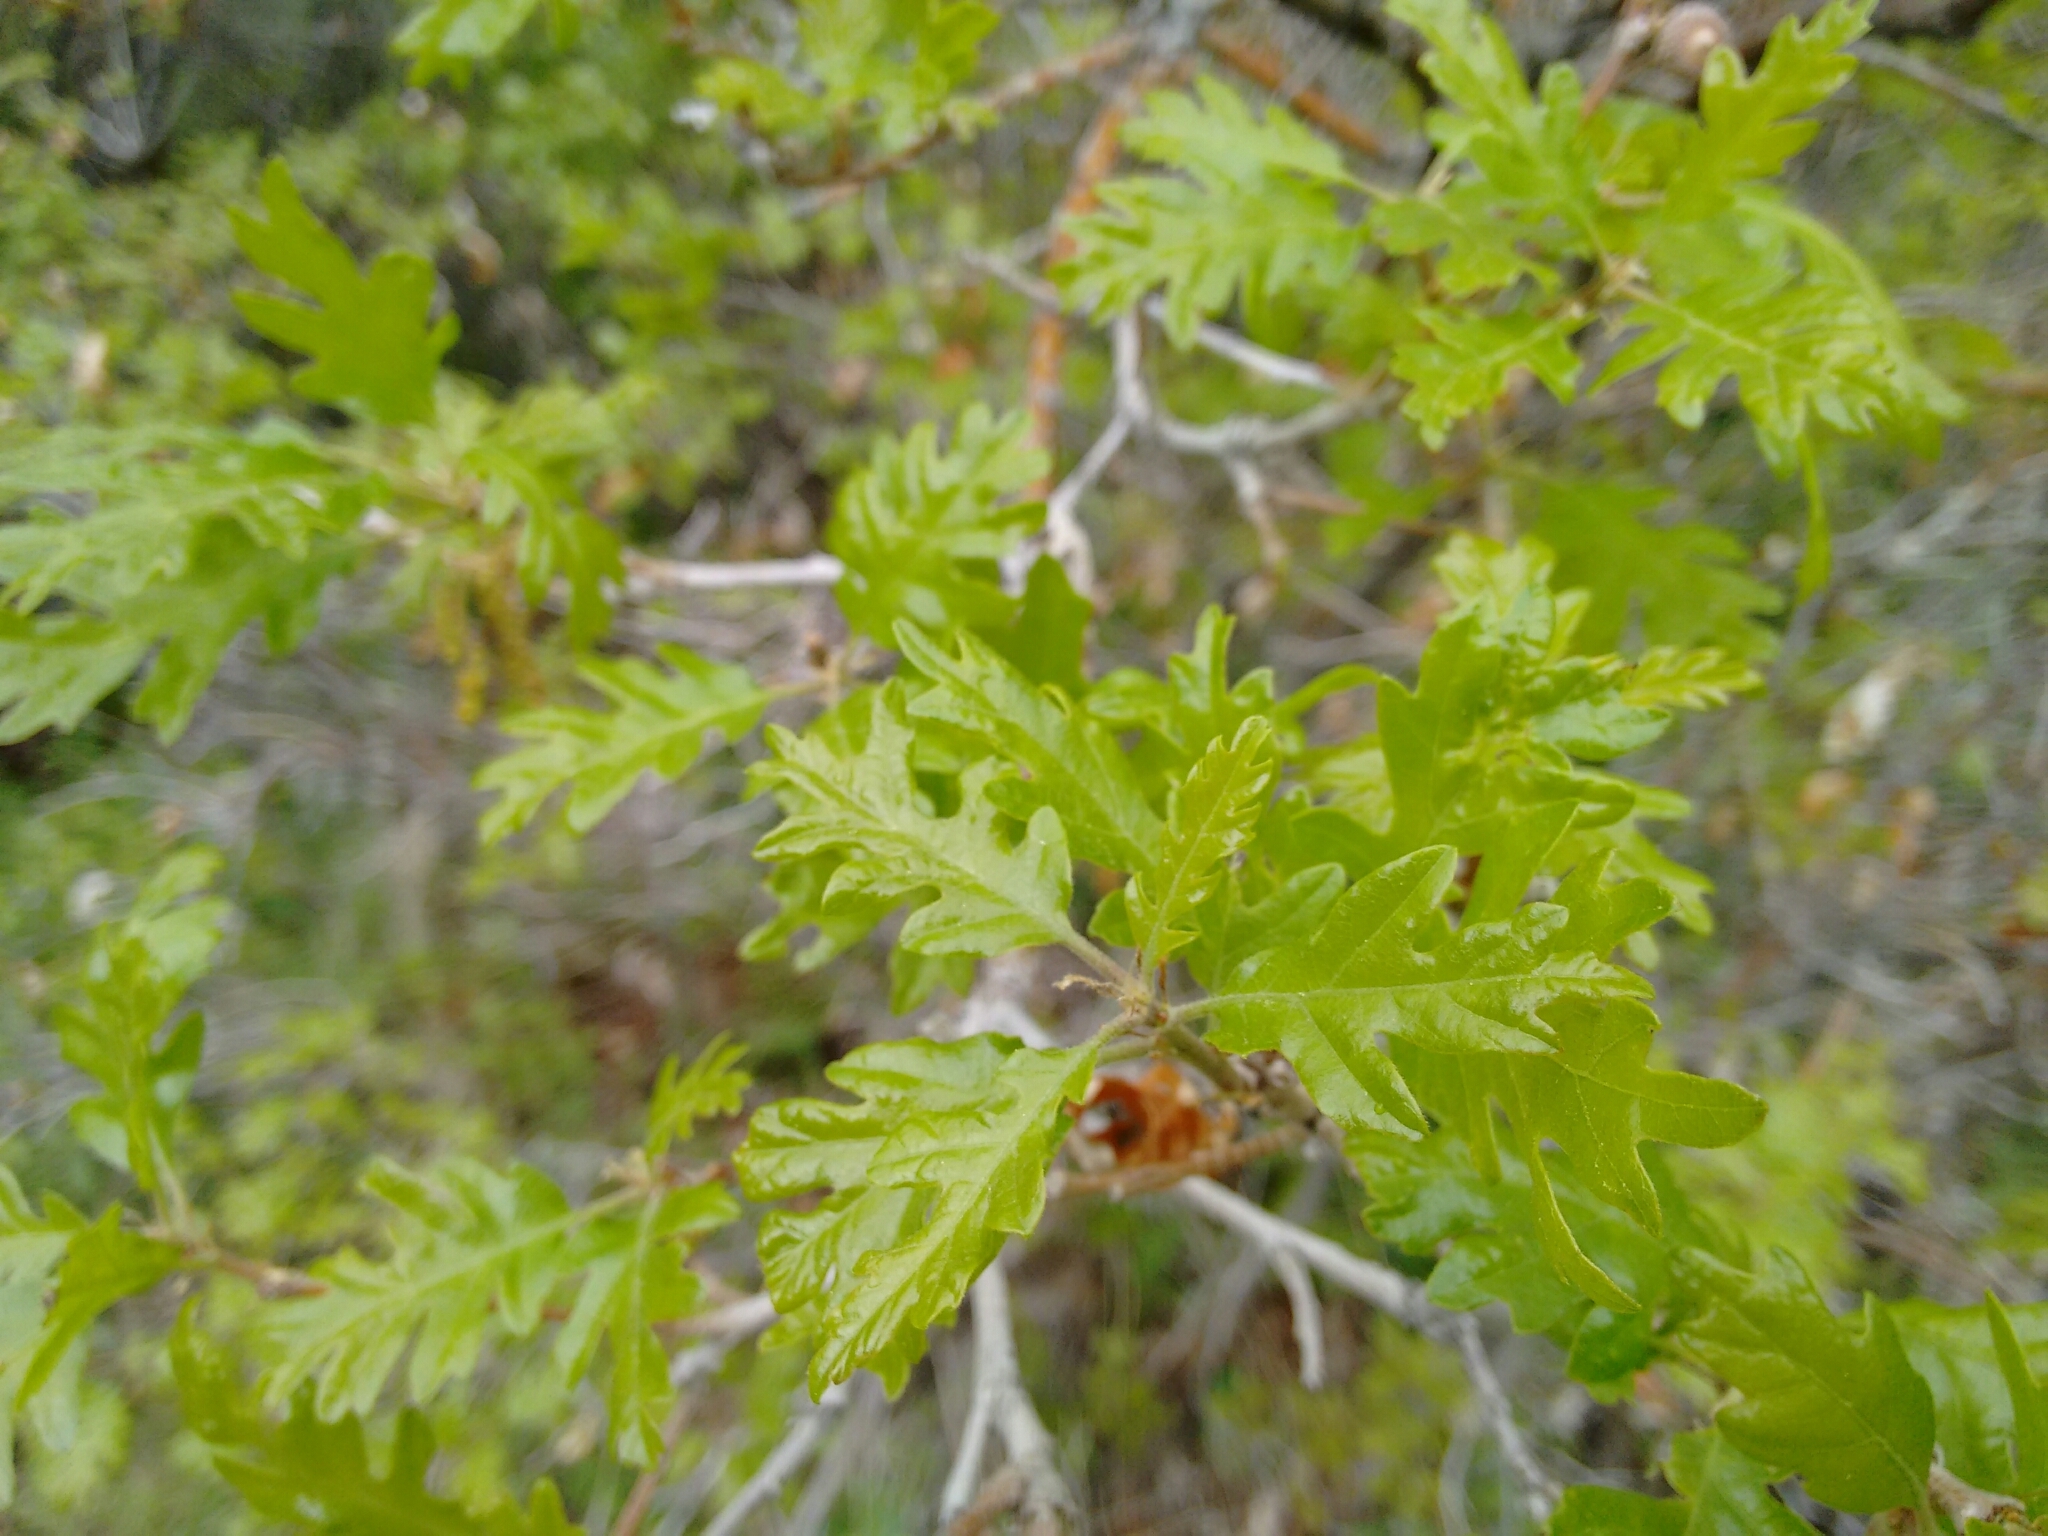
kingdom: Plantae
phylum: Tracheophyta
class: Magnoliopsida
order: Fagales
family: Fagaceae
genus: Quercus
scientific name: Quercus gambelii
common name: Gambel oak
